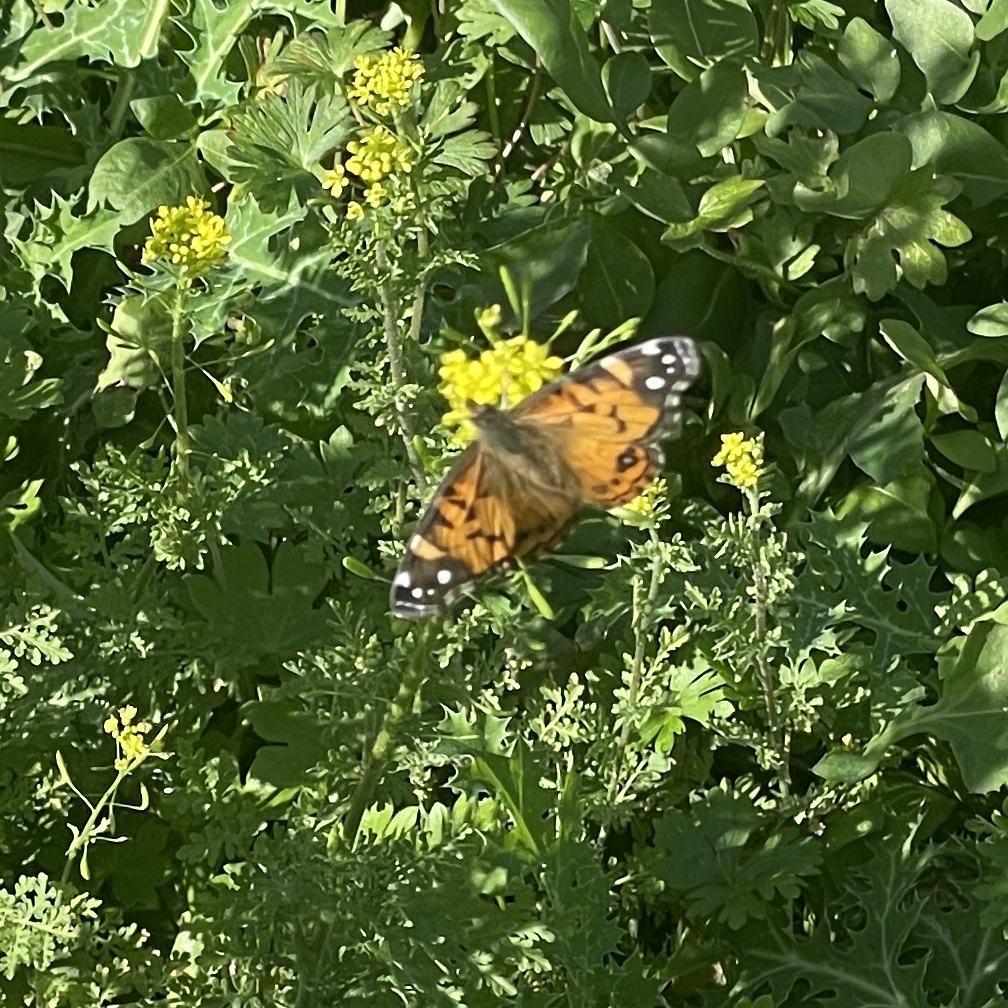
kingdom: Animalia
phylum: Arthropoda
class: Insecta
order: Lepidoptera
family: Nymphalidae
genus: Vanessa
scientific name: Vanessa virginiensis
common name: American lady
